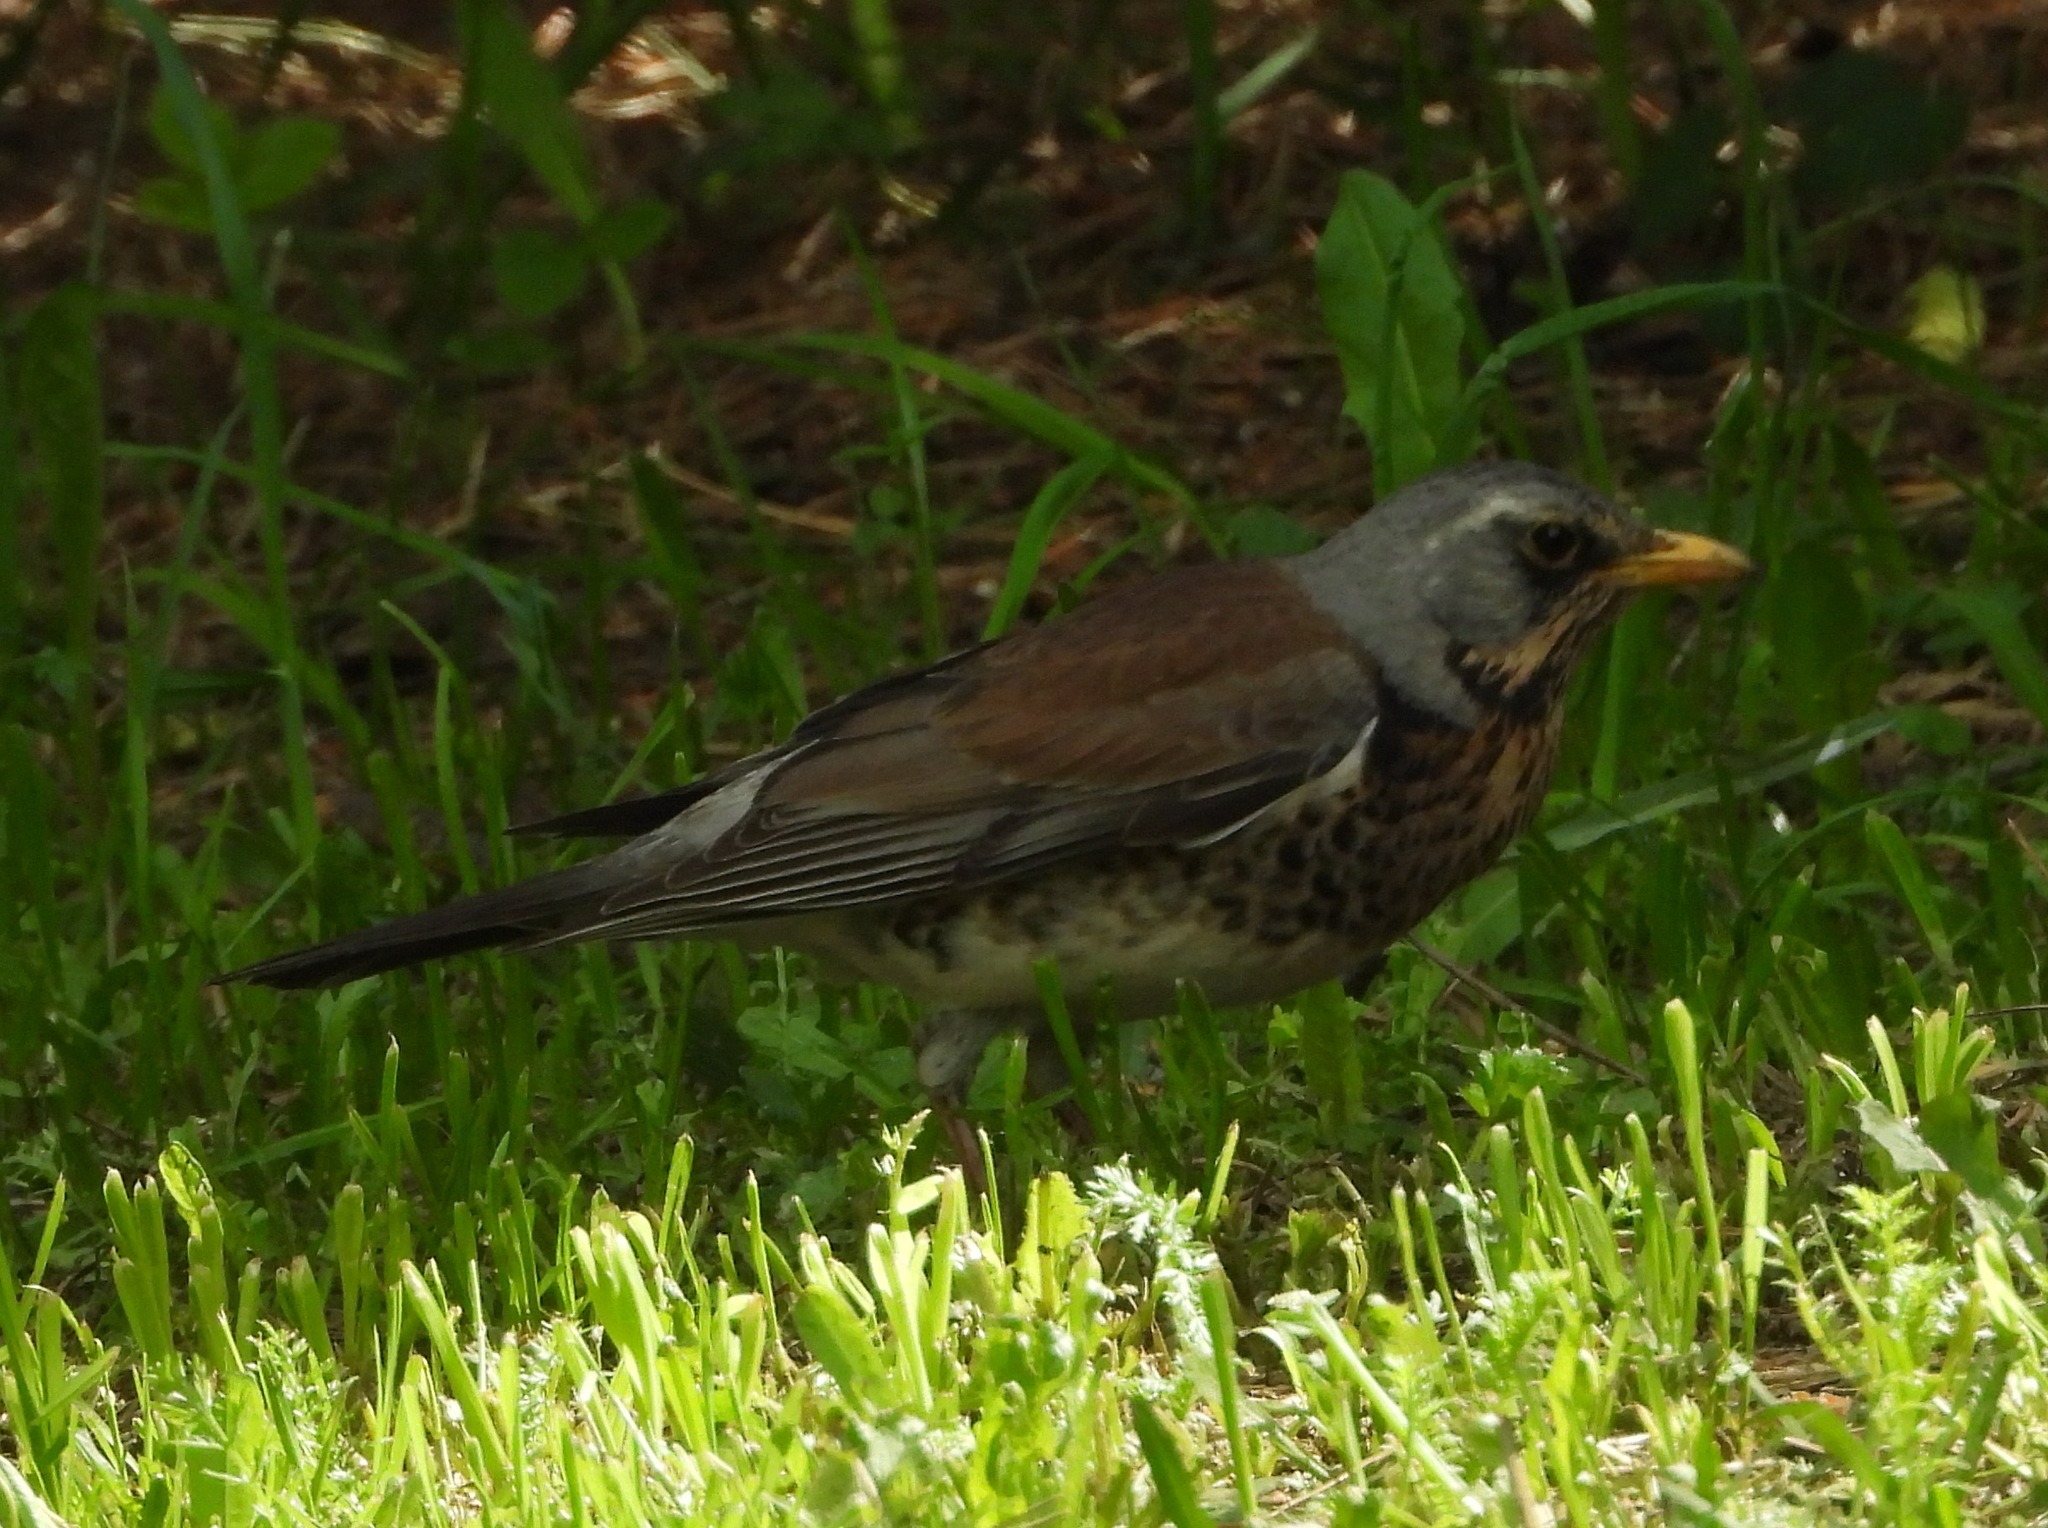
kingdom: Animalia
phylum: Chordata
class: Aves
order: Passeriformes
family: Turdidae
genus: Turdus
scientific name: Turdus pilaris
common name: Fieldfare
